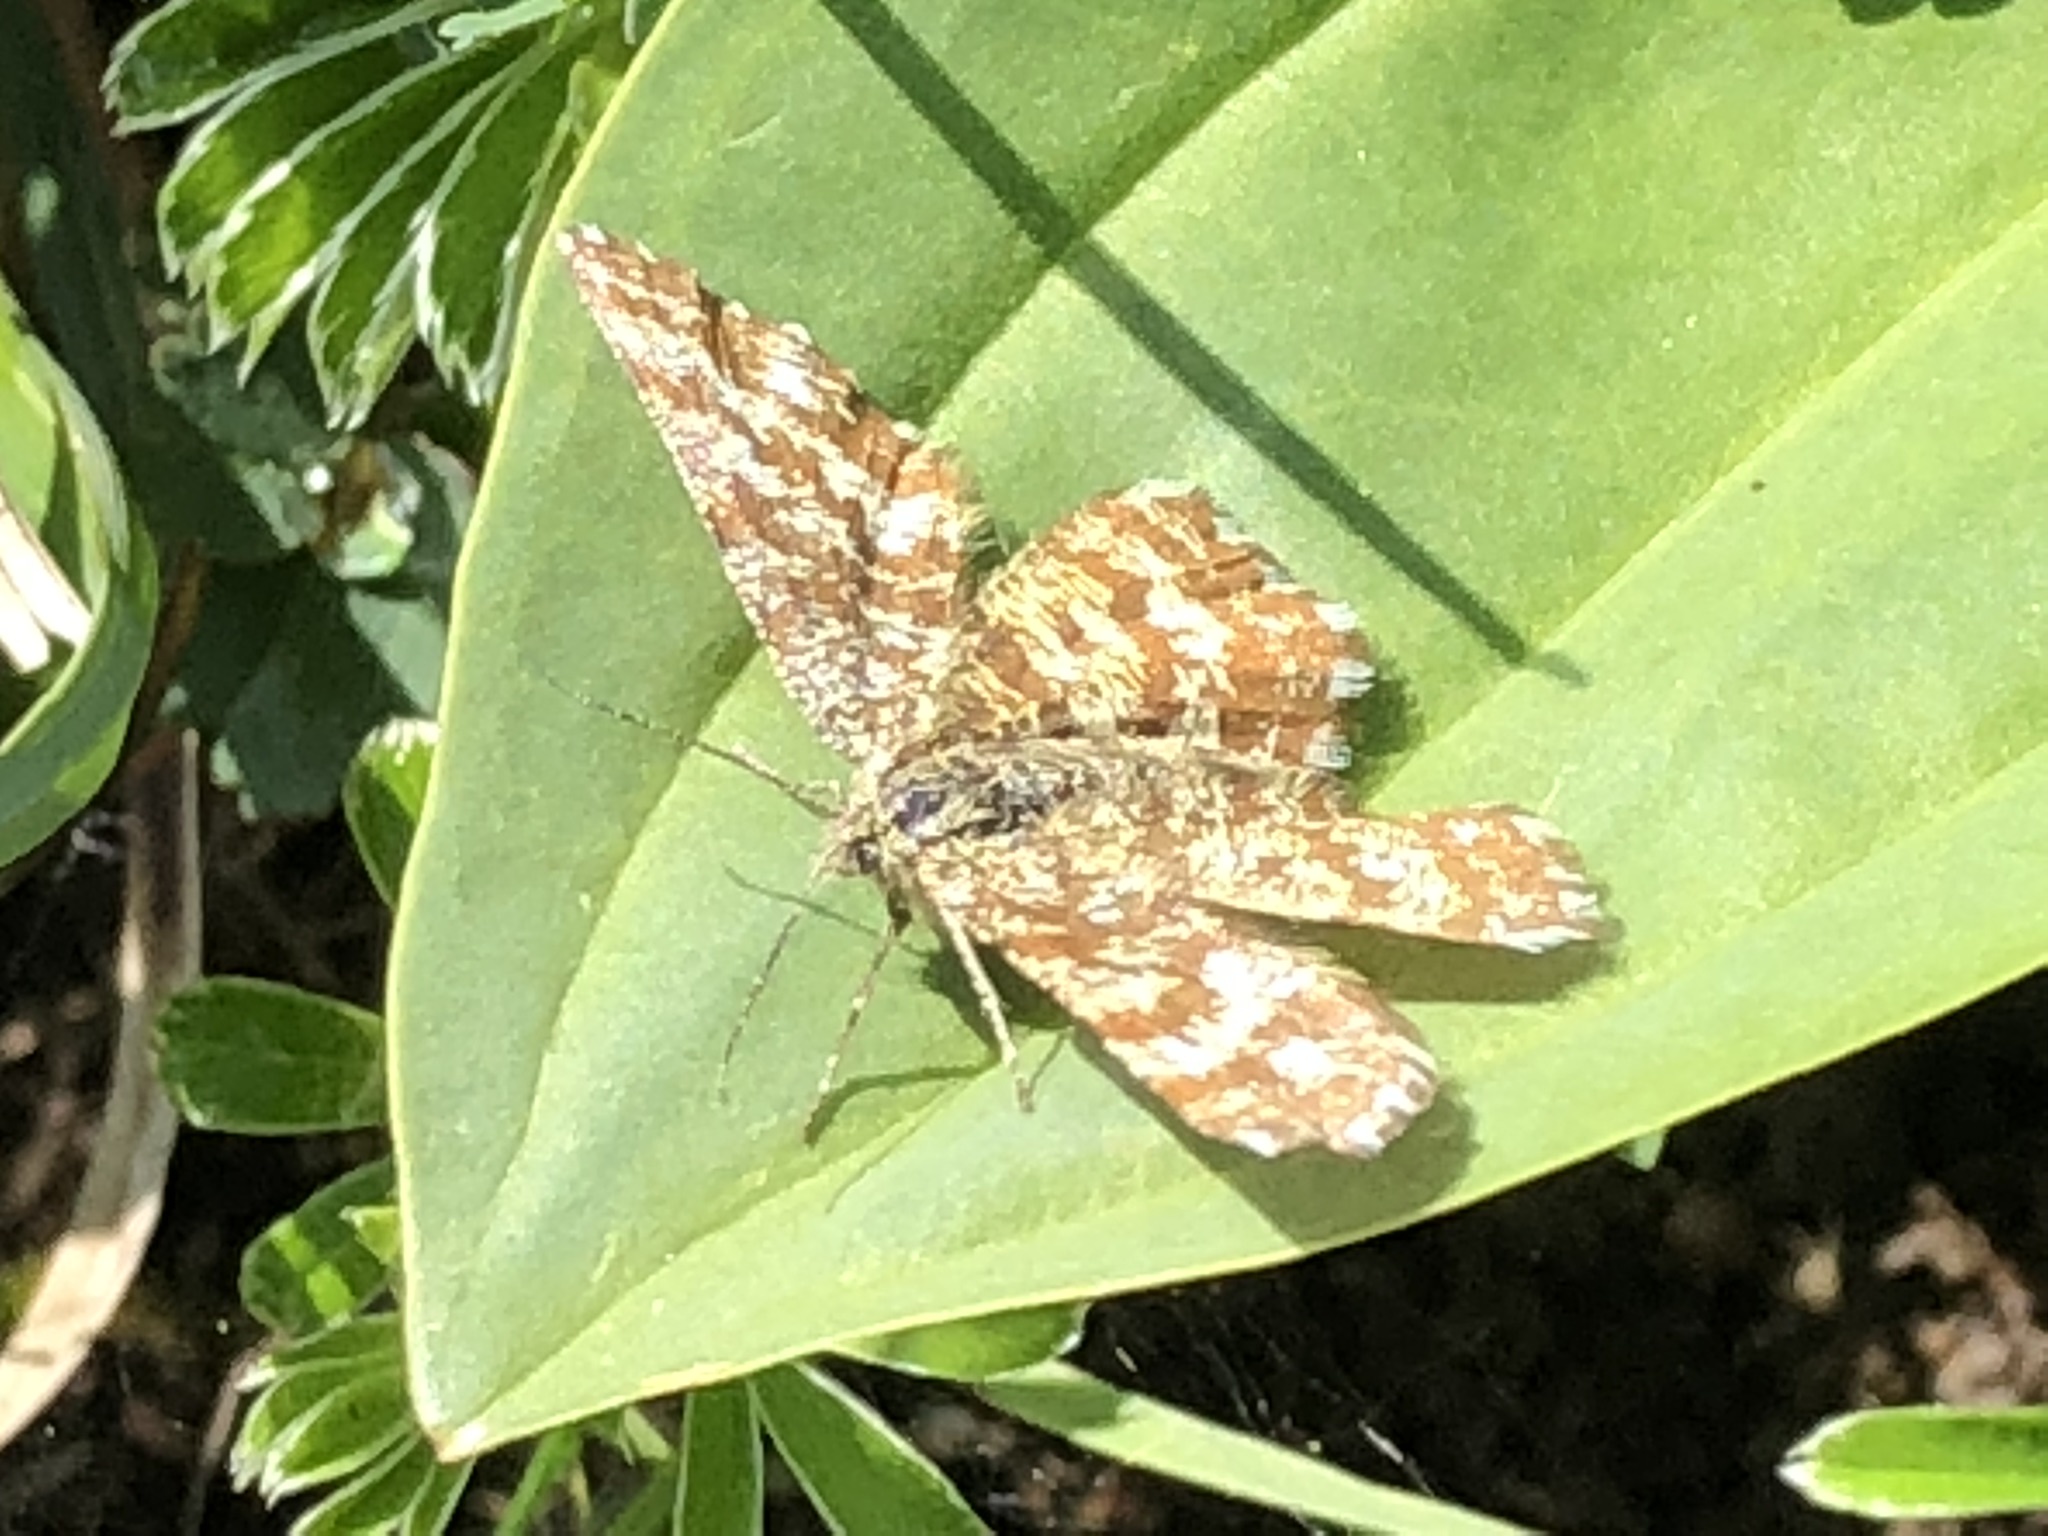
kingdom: Animalia
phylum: Arthropoda
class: Insecta
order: Lepidoptera
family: Geometridae
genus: Ematurga
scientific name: Ematurga atomaria
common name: Common heath
